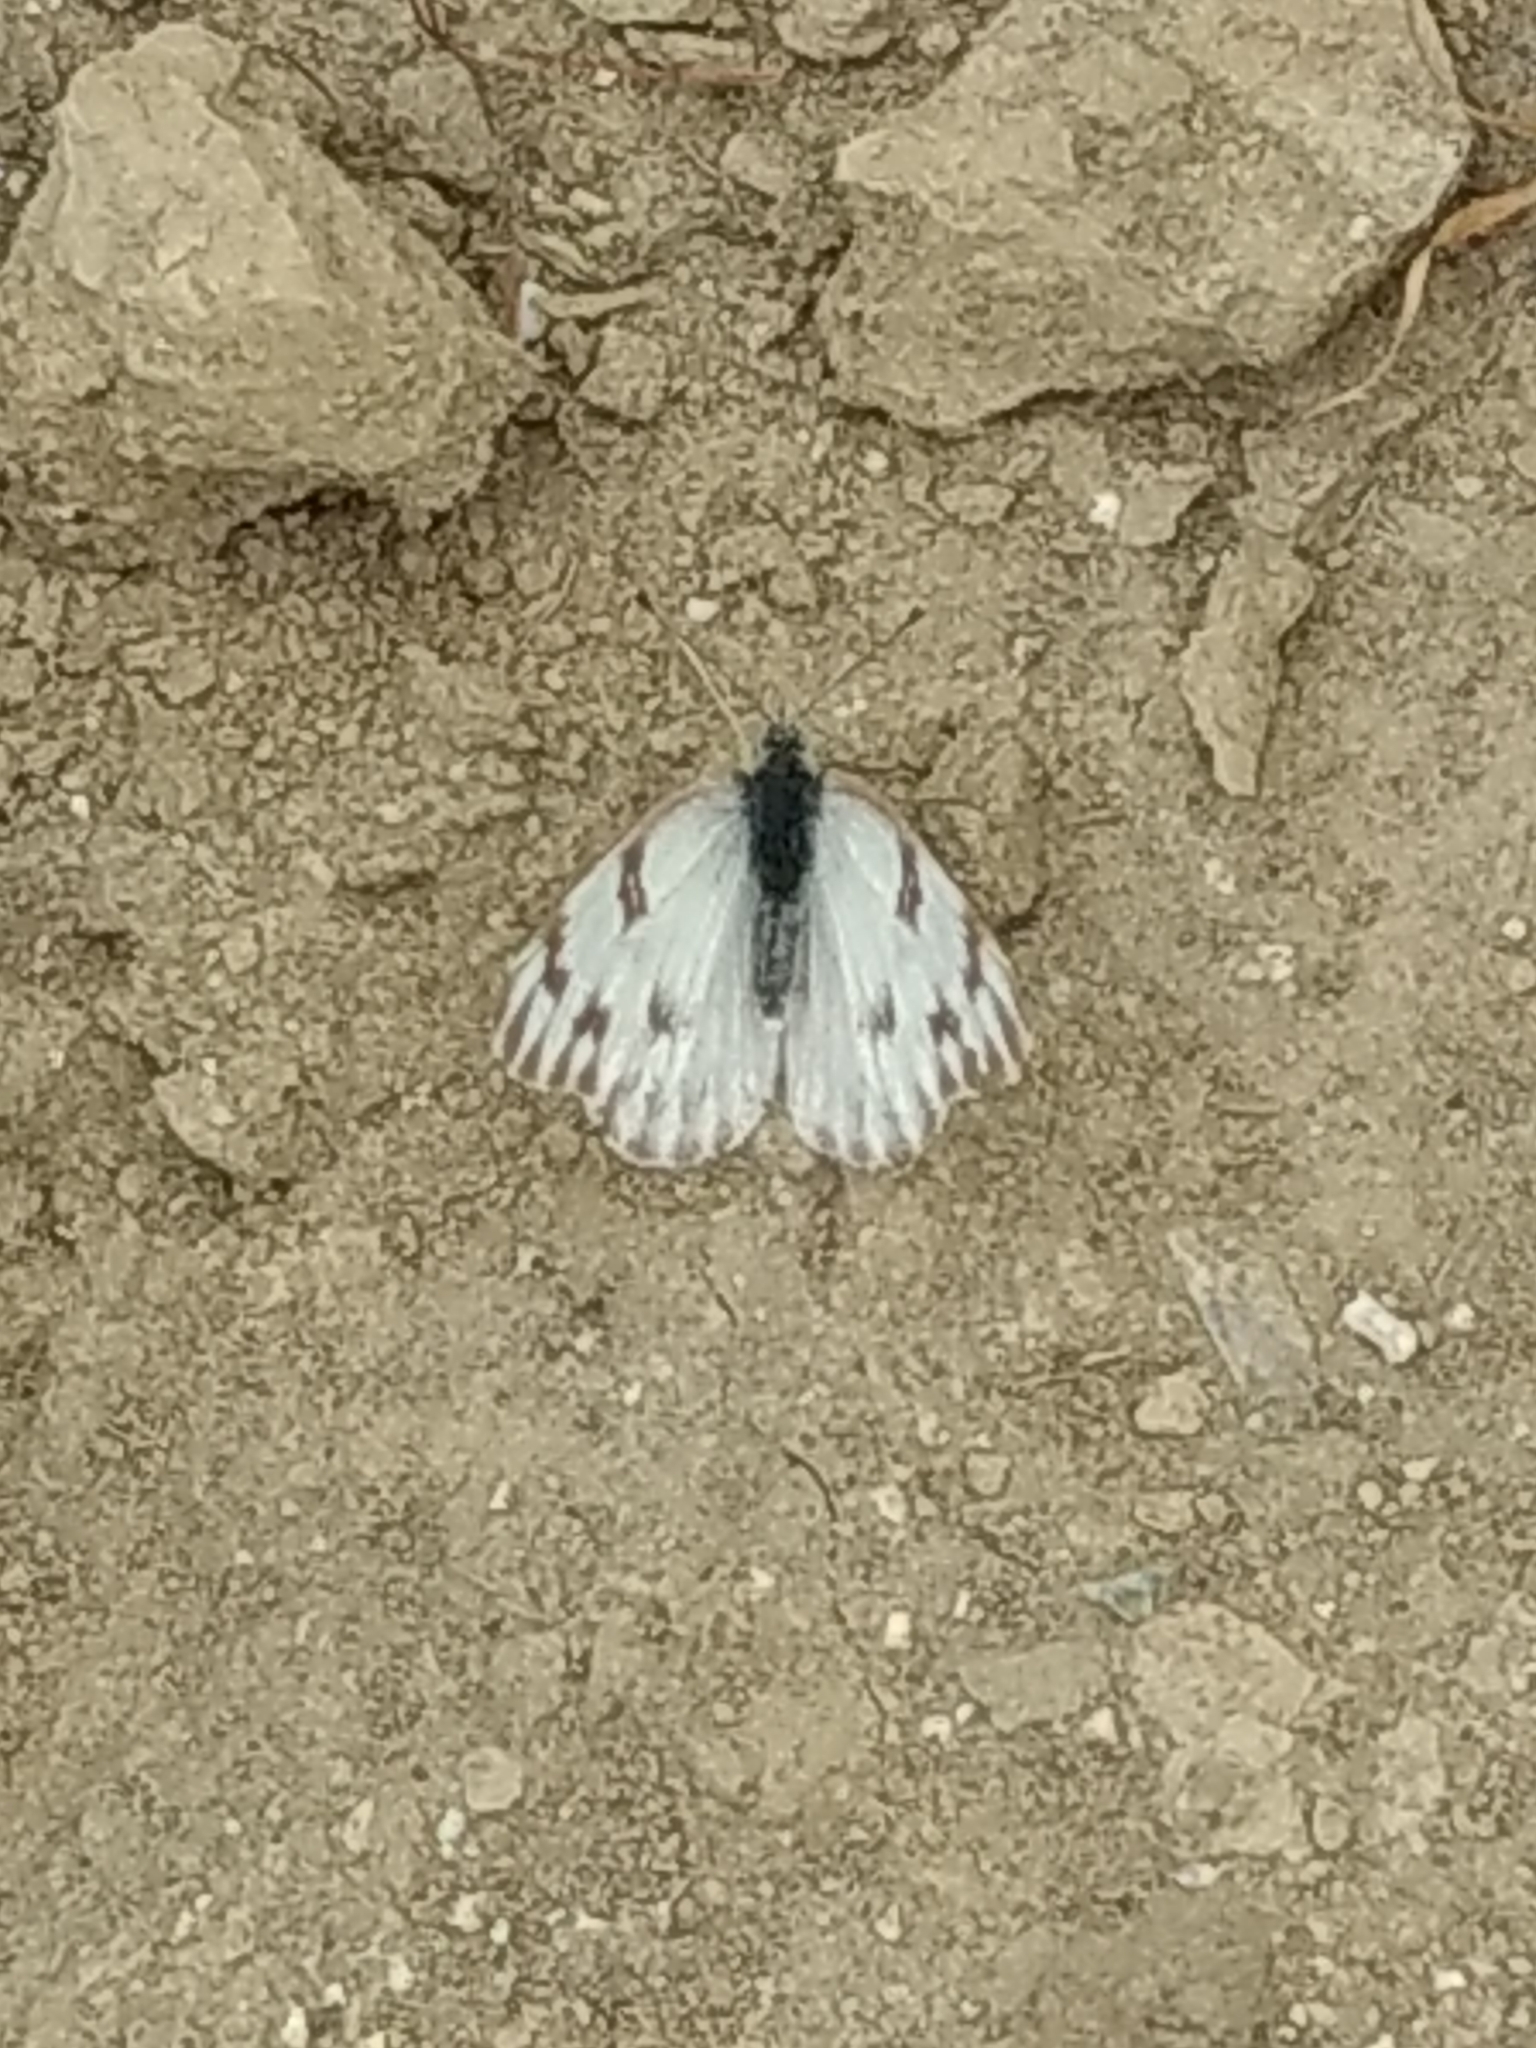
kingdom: Animalia
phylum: Arthropoda
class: Insecta
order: Lepidoptera
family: Pieridae
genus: Pontia
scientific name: Pontia protodice
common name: Checkered white
